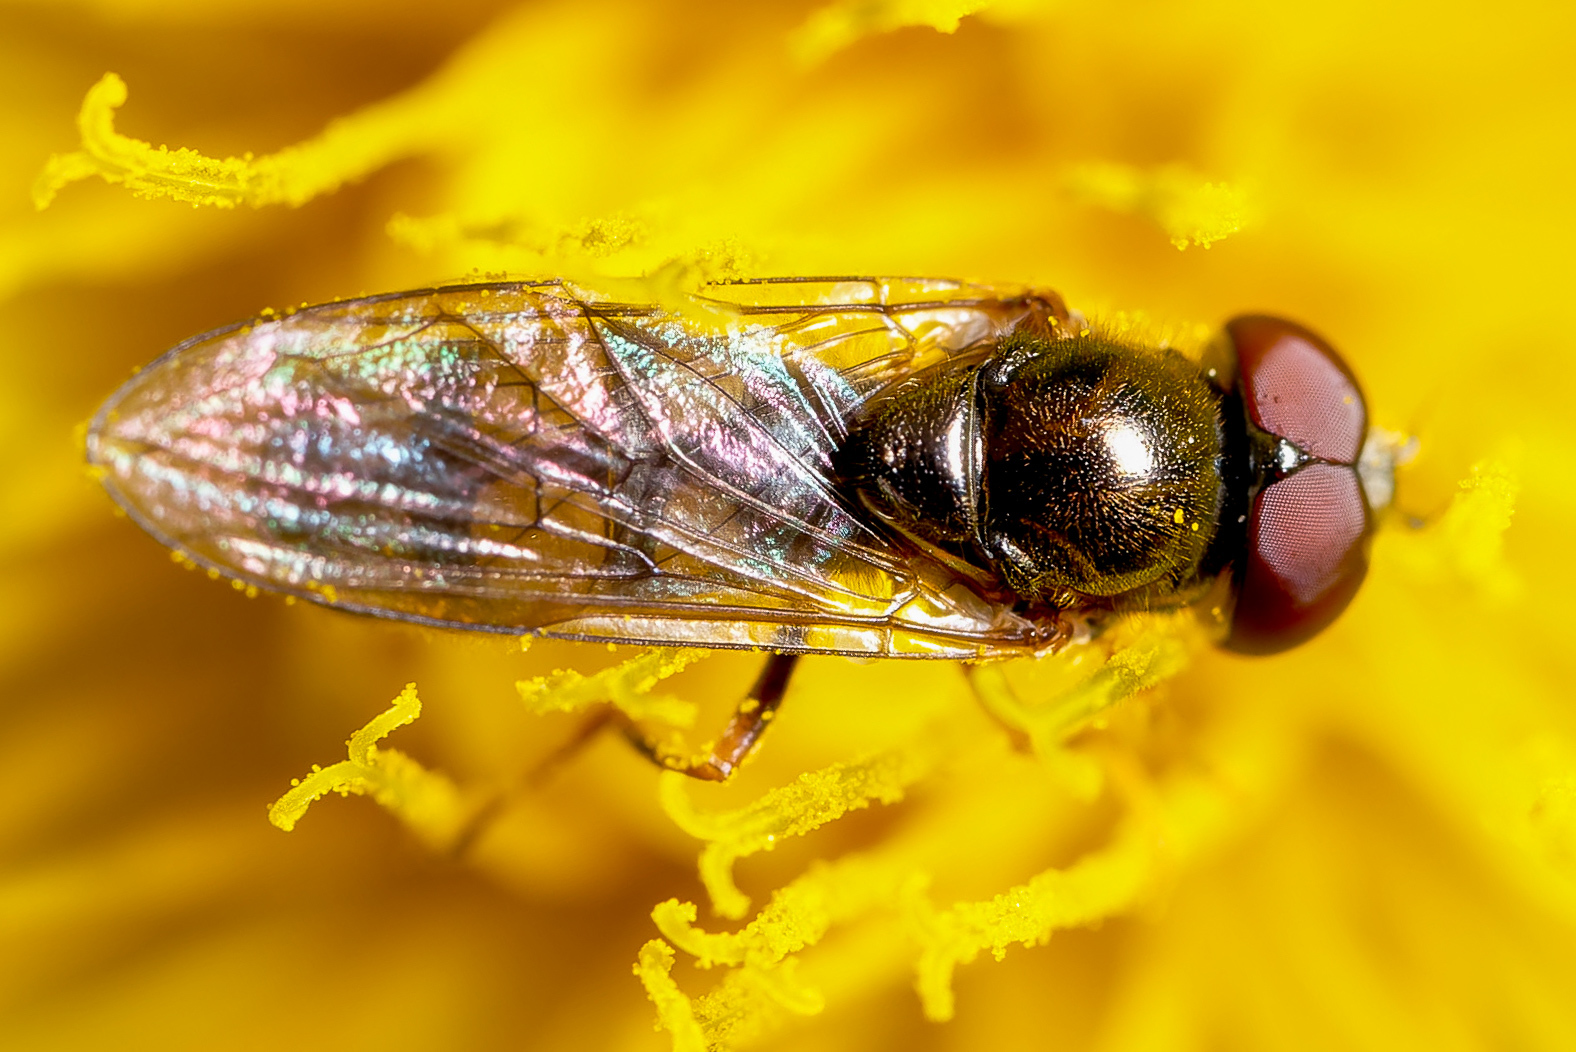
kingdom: Animalia
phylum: Arthropoda
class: Insecta
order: Diptera
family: Syrphidae
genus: Melanostoma
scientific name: Melanostoma mellina
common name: Hover fly
